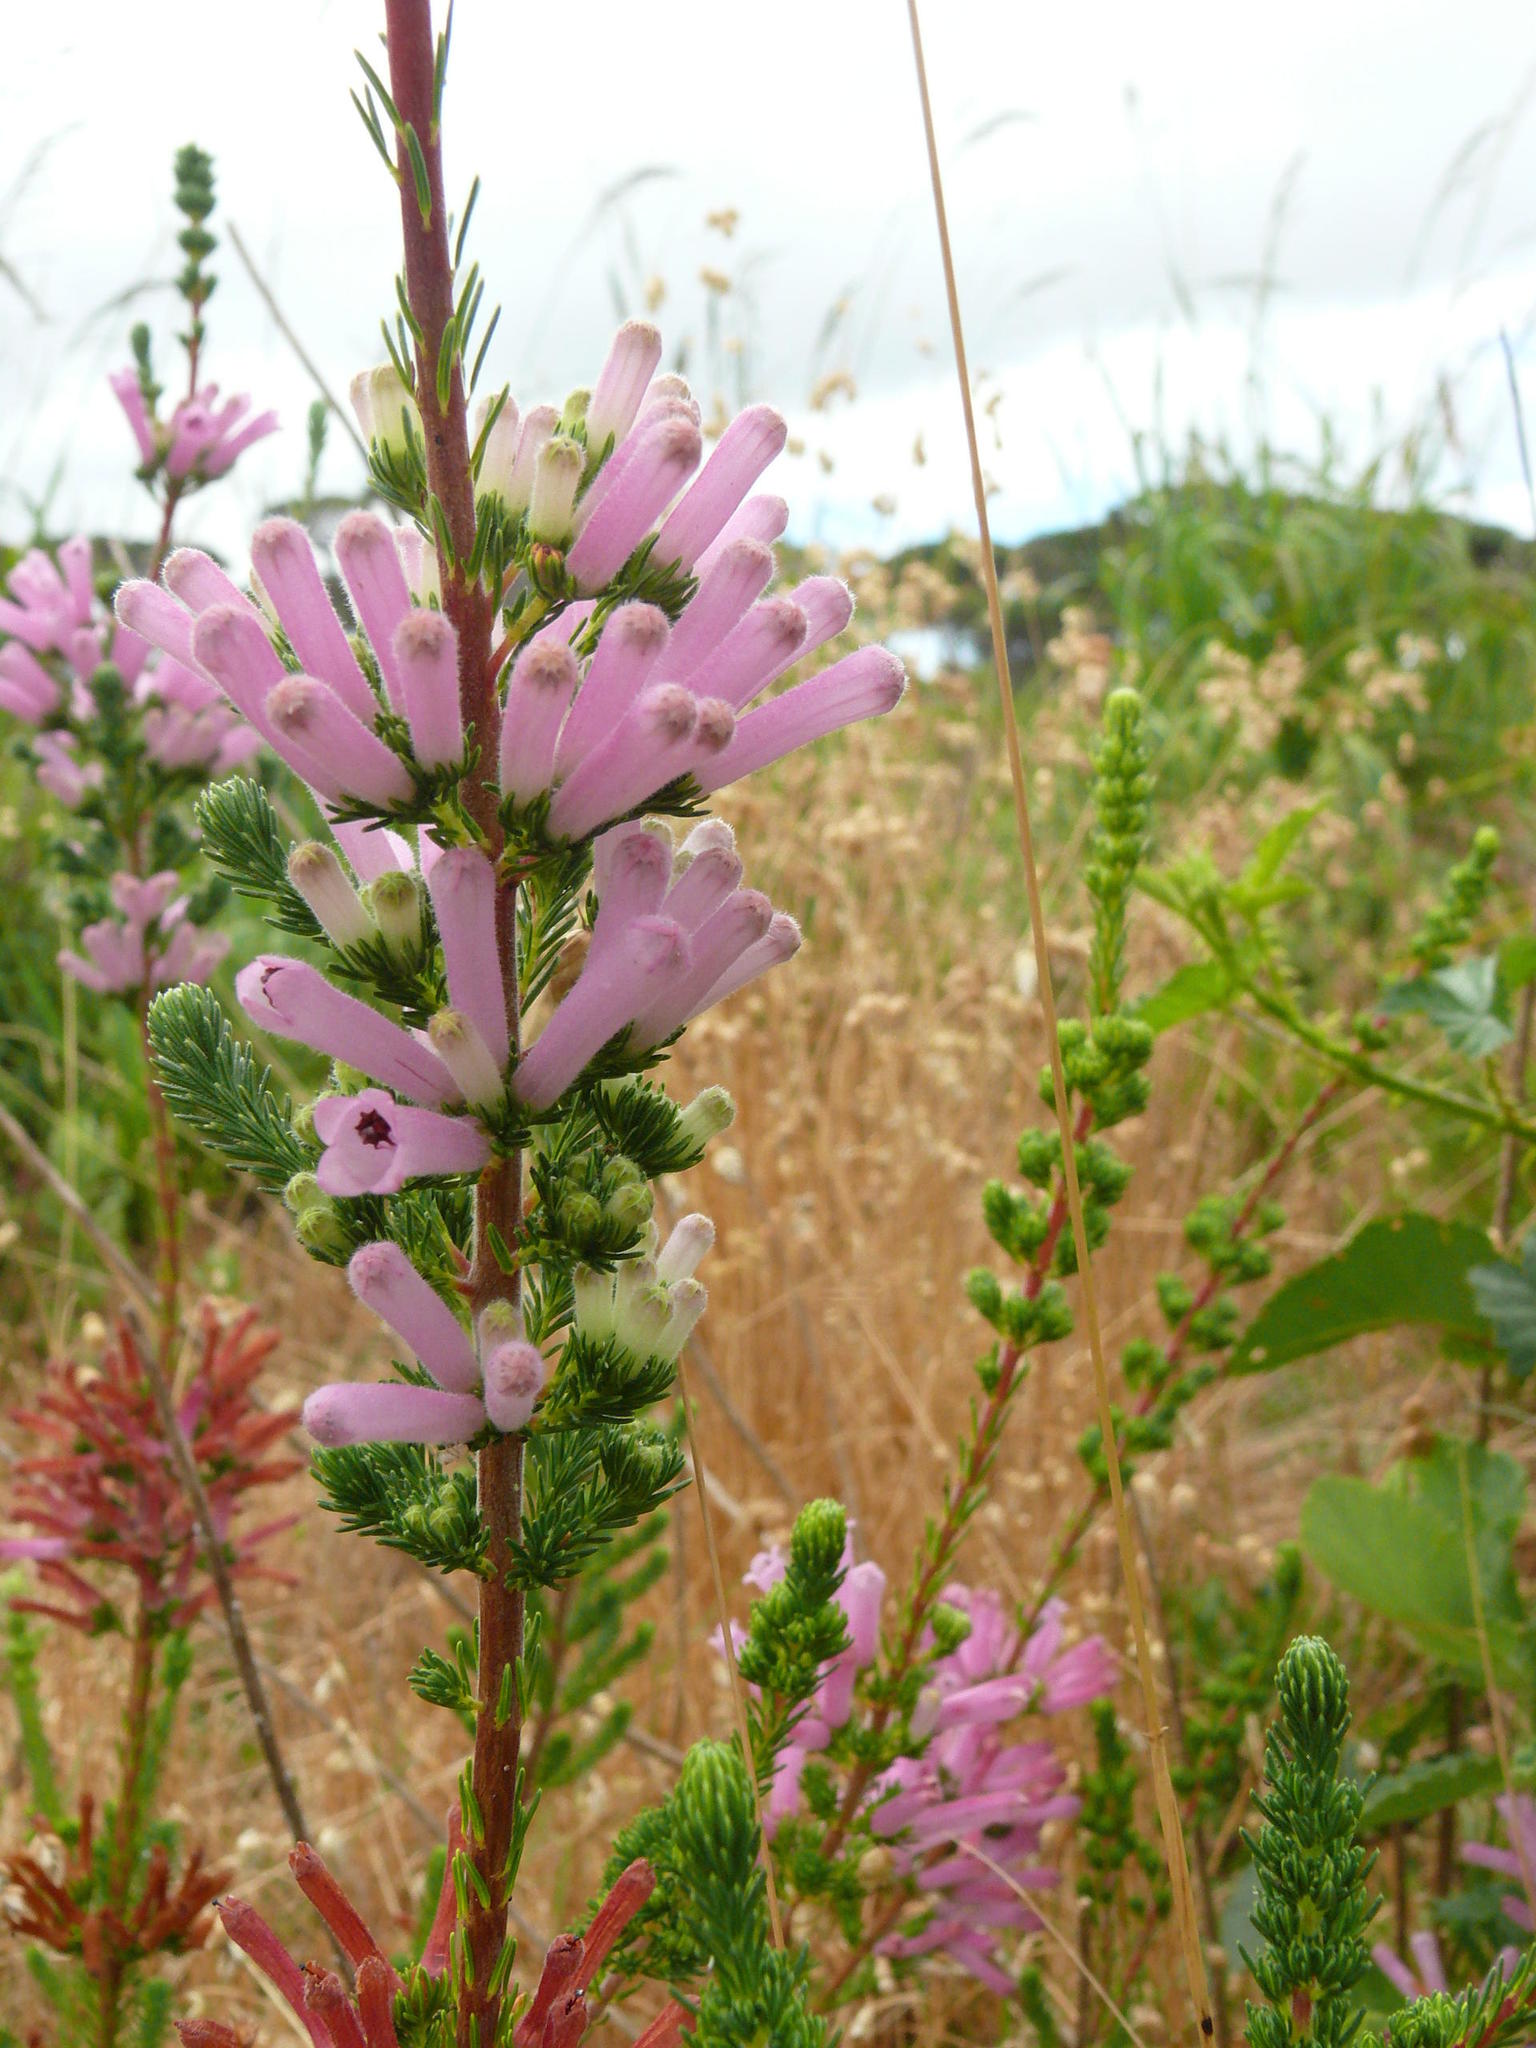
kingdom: Plantae
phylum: Tracheophyta
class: Magnoliopsida
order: Ericales
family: Ericaceae
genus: Erica
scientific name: Erica verticillata
